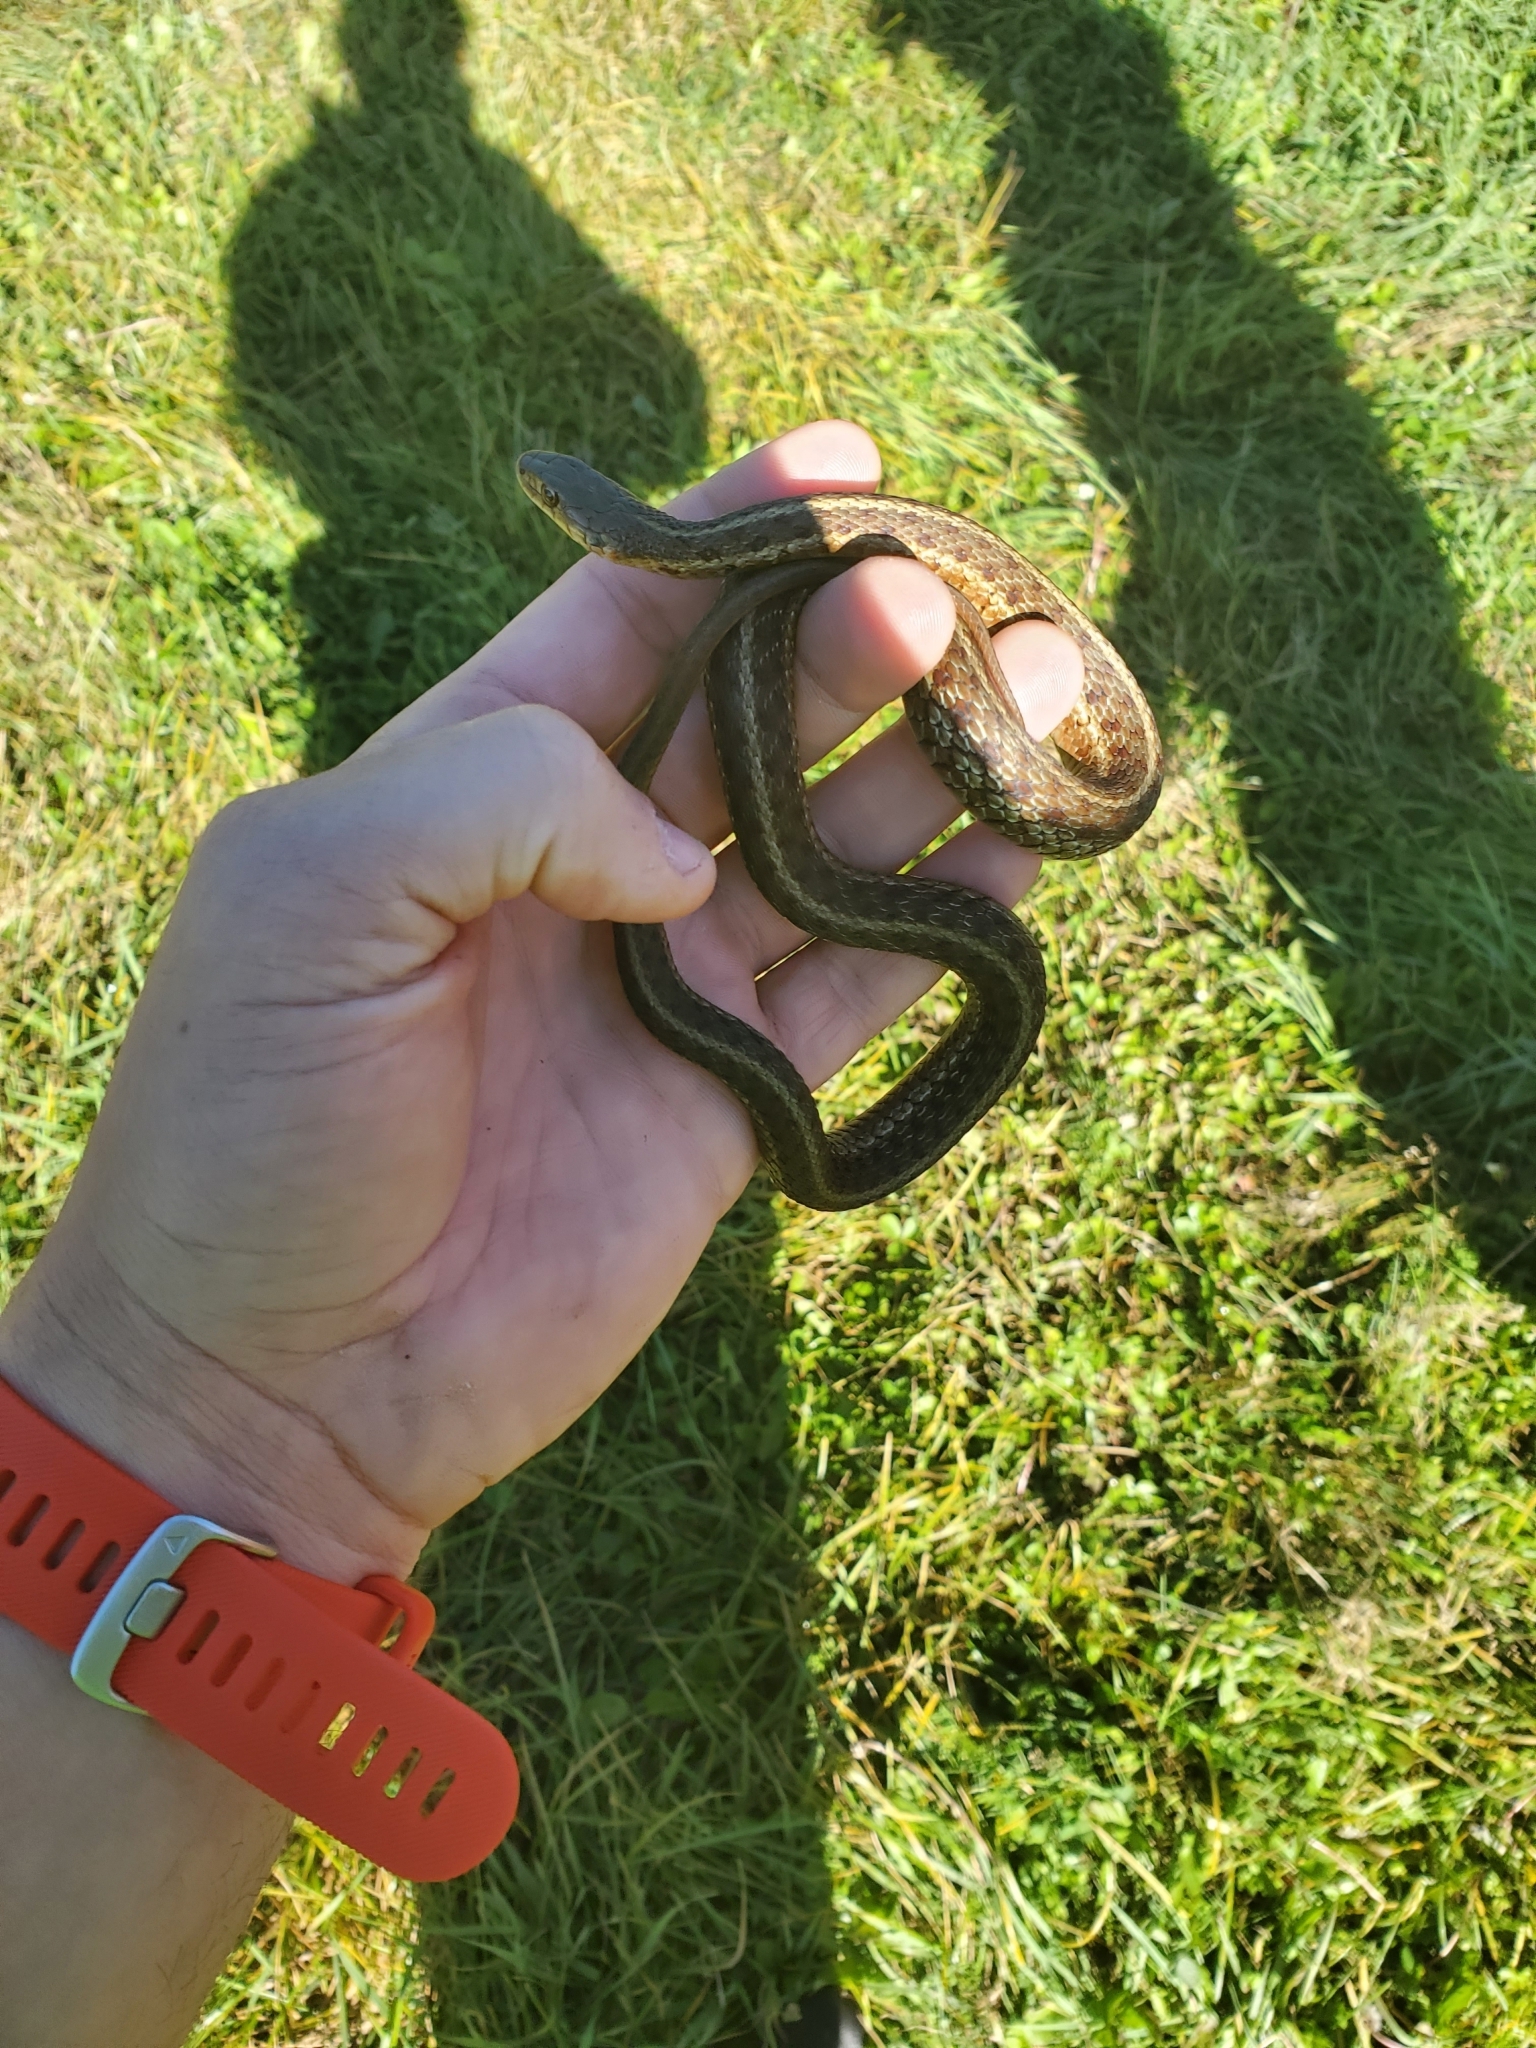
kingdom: Animalia
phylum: Chordata
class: Squamata
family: Colubridae
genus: Thamnophis
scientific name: Thamnophis sirtalis
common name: Common garter snake
